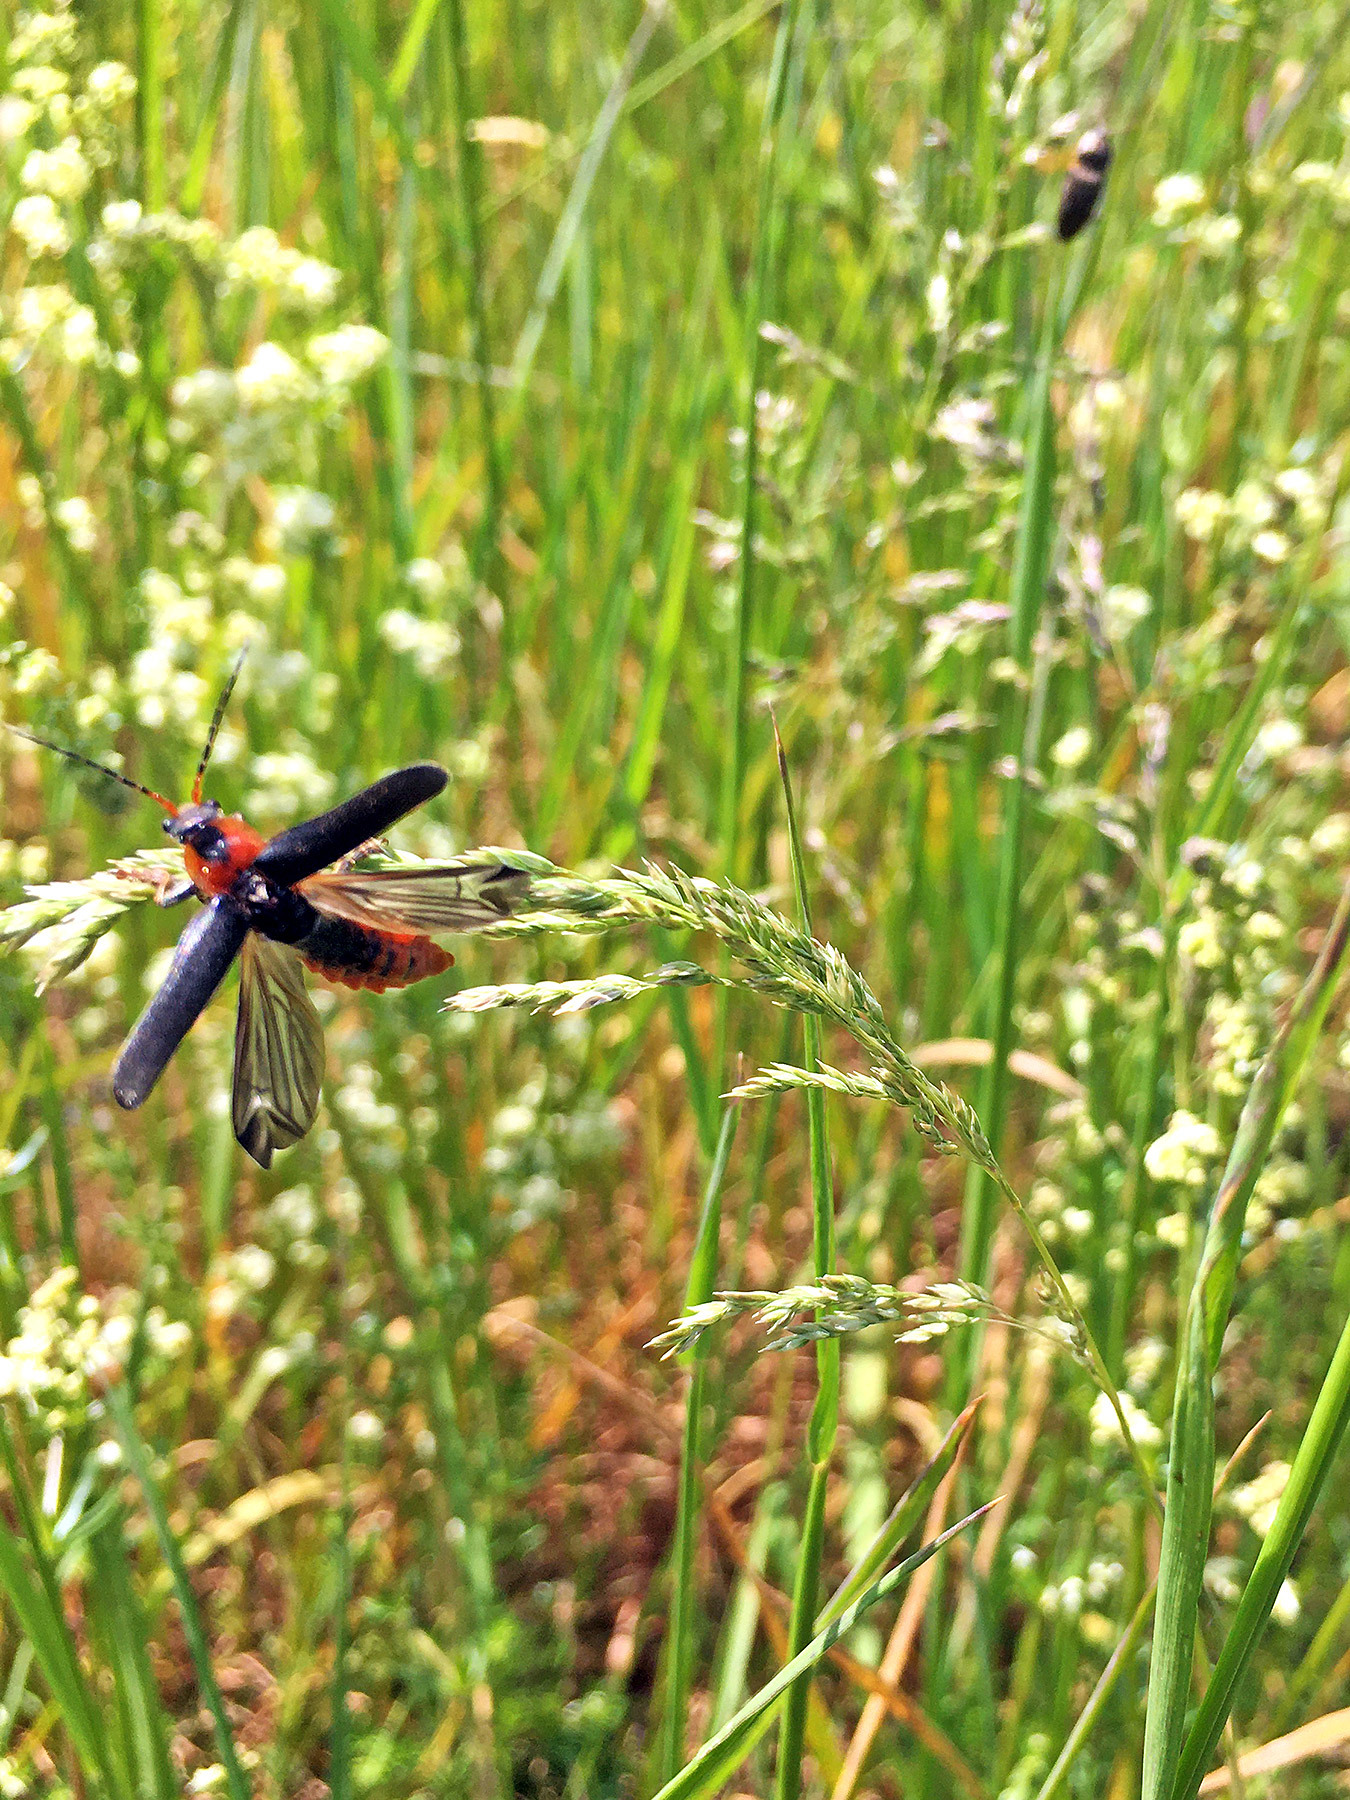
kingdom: Animalia
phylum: Arthropoda
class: Insecta
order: Coleoptera
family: Cantharidae
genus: Cantharis
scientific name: Cantharis fusca
